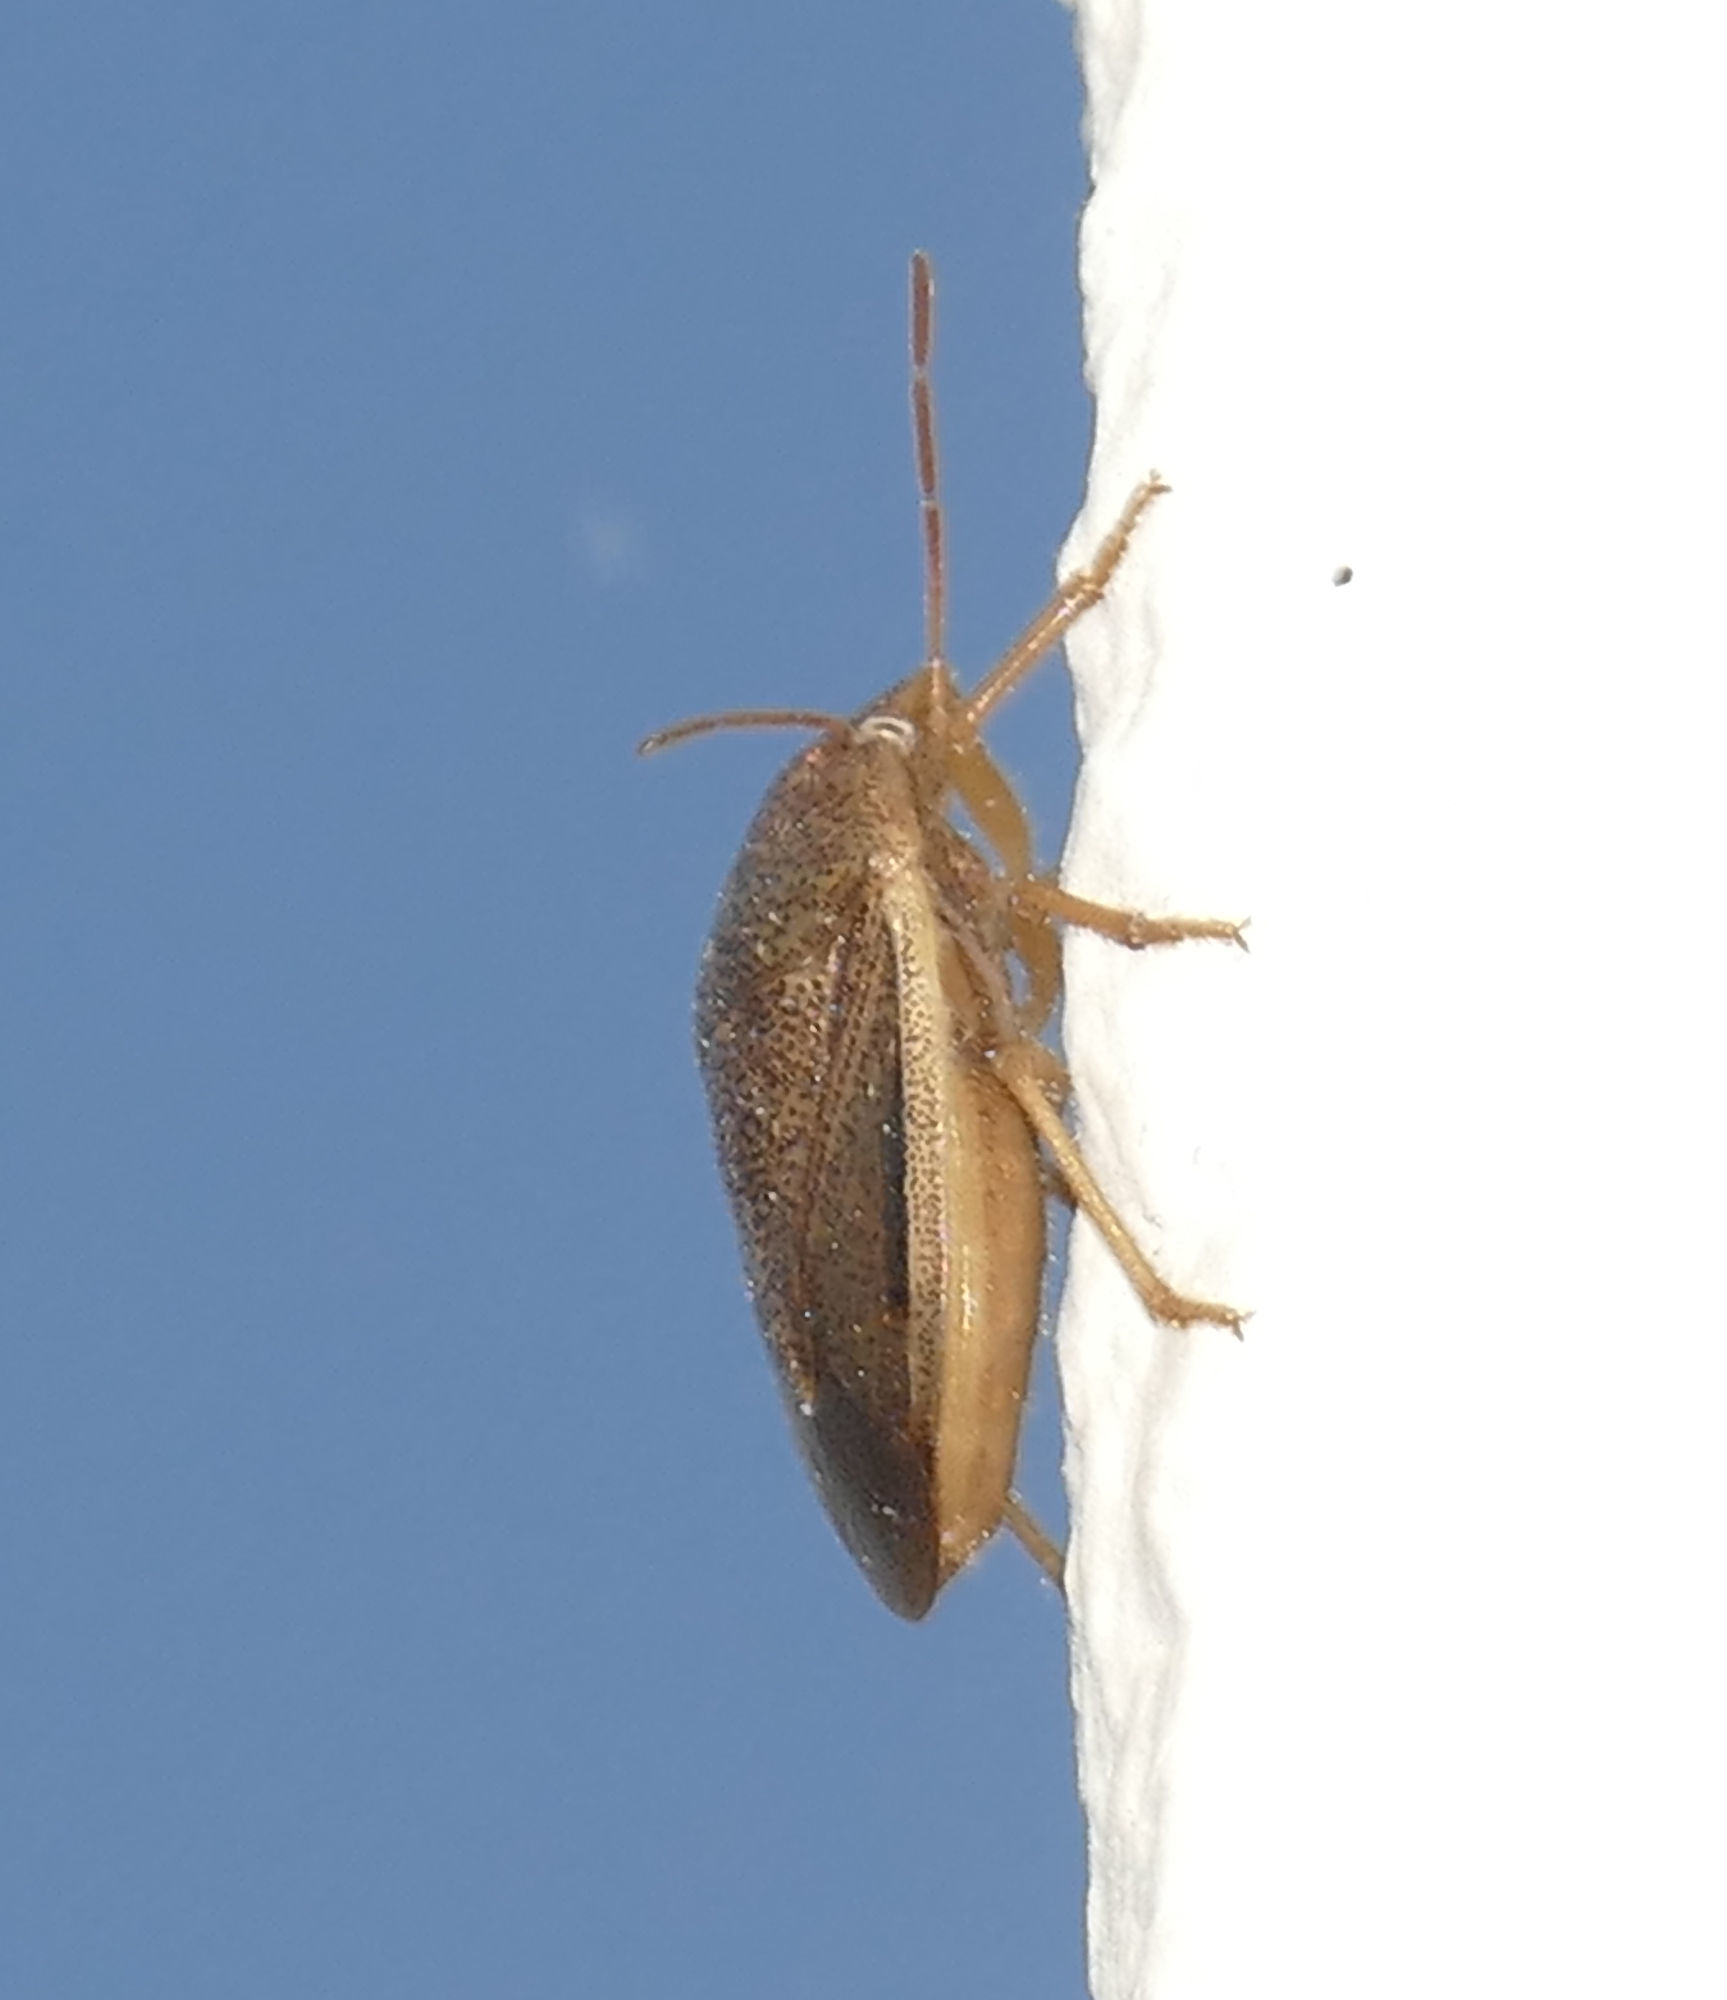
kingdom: Animalia
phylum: Arthropoda
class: Insecta
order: Hemiptera
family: Pentatomidae
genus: Chlorochroa
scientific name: Chlorochroa saucia
